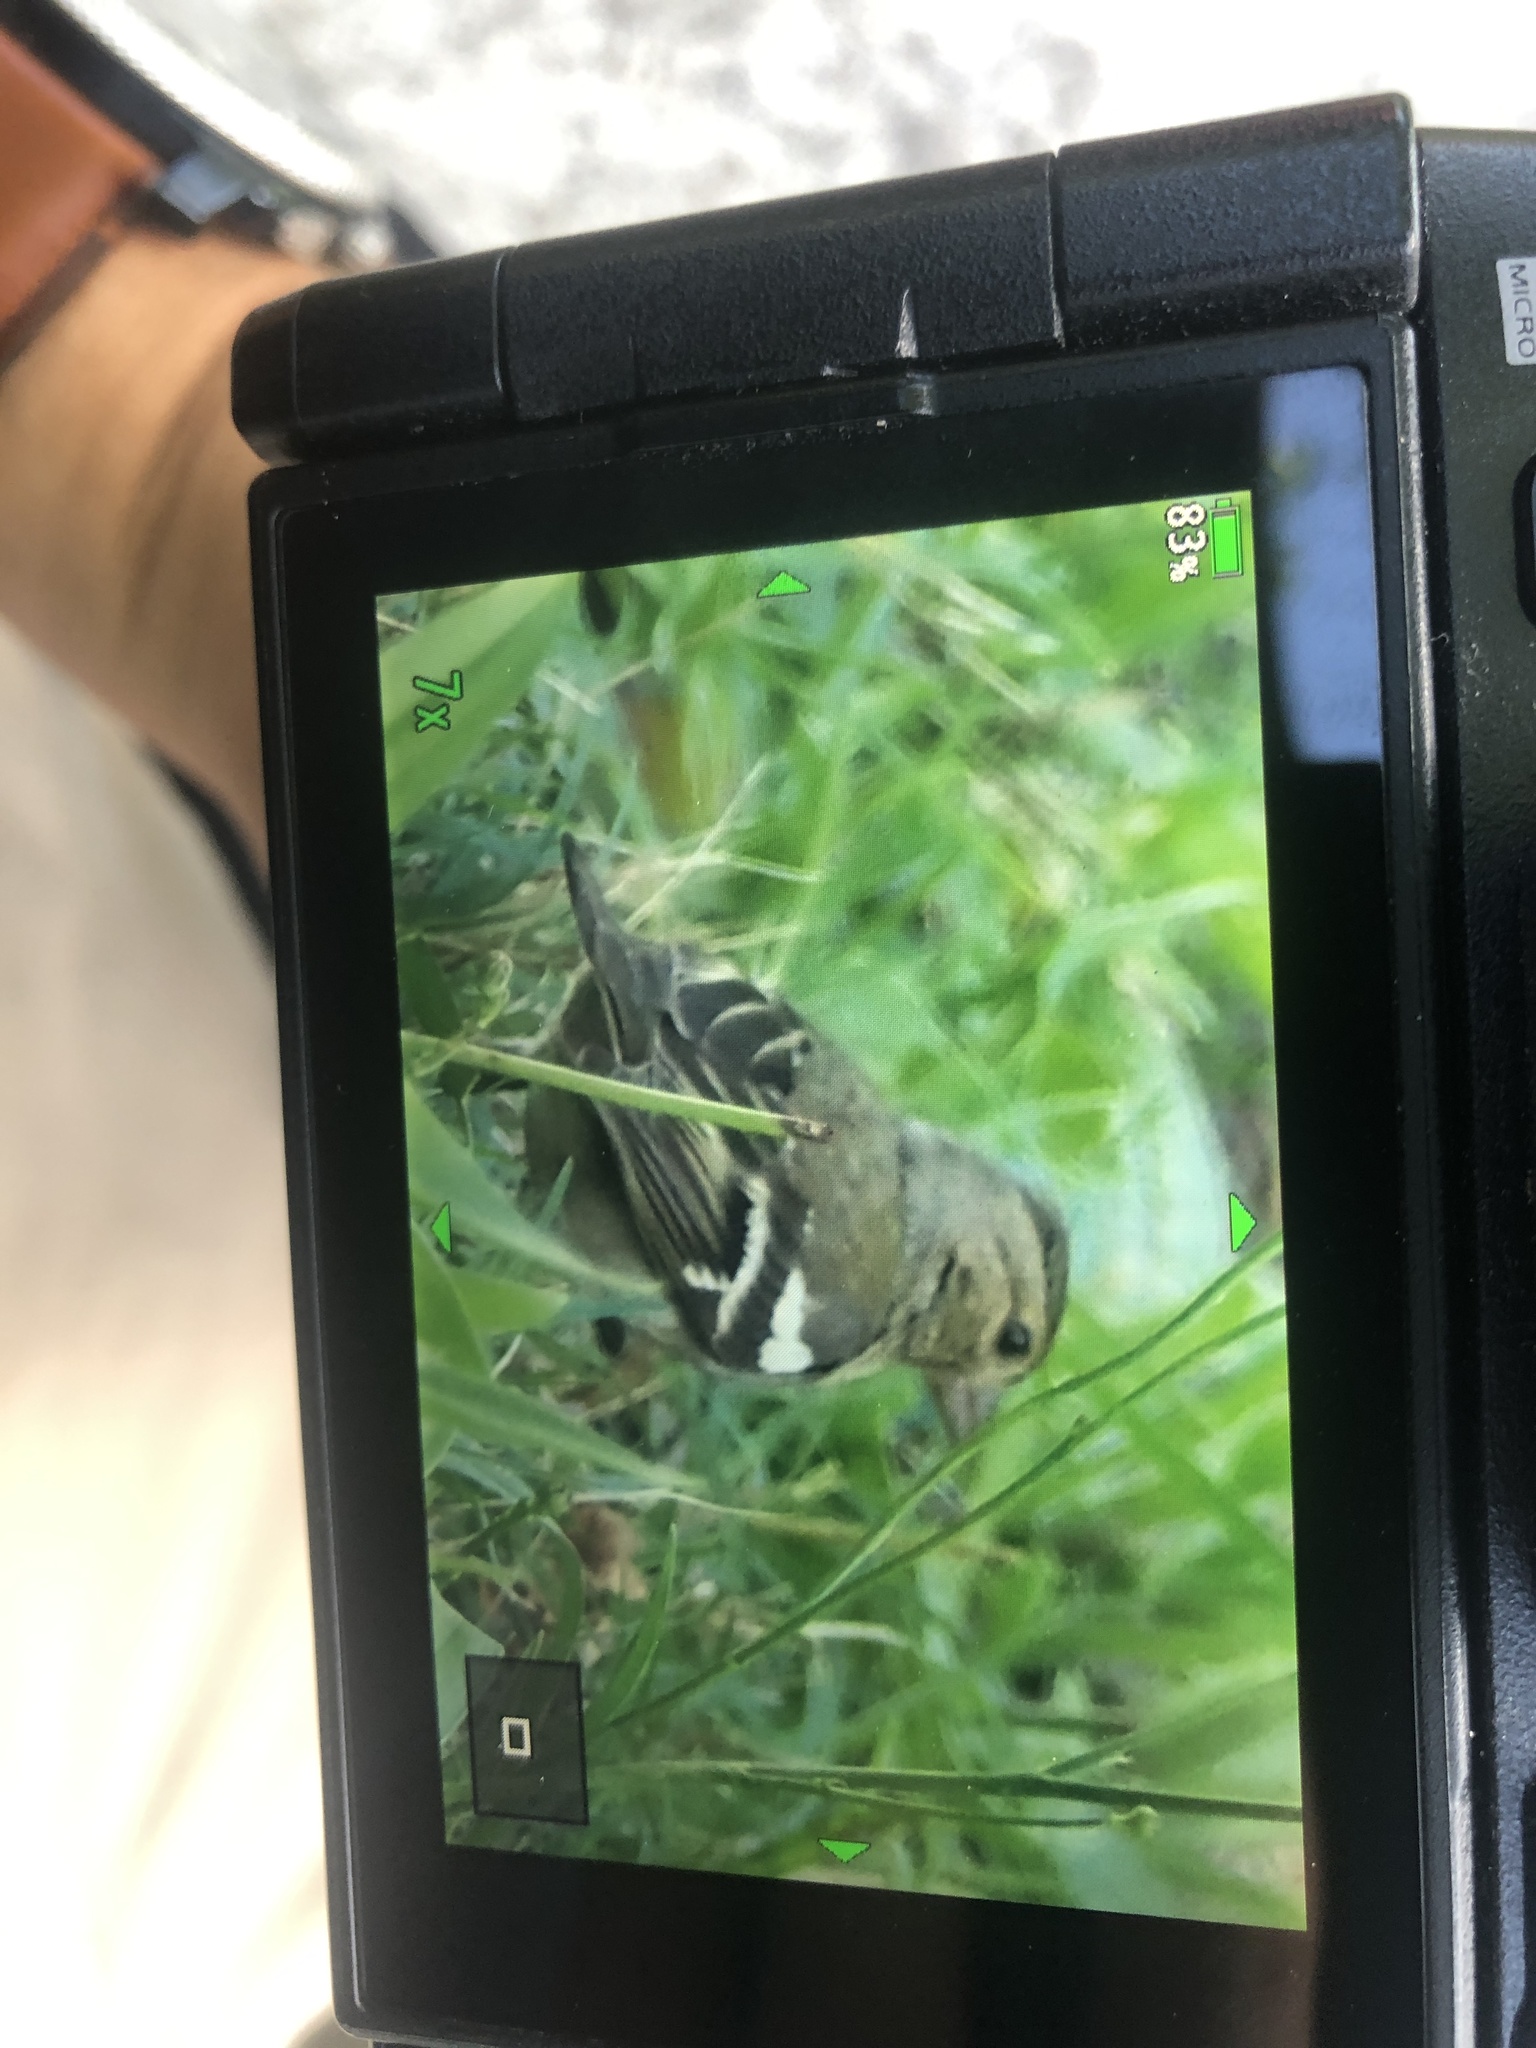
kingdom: Animalia
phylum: Chordata
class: Aves
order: Passeriformes
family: Fringillidae
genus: Fringilla
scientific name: Fringilla coelebs
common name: Common chaffinch
